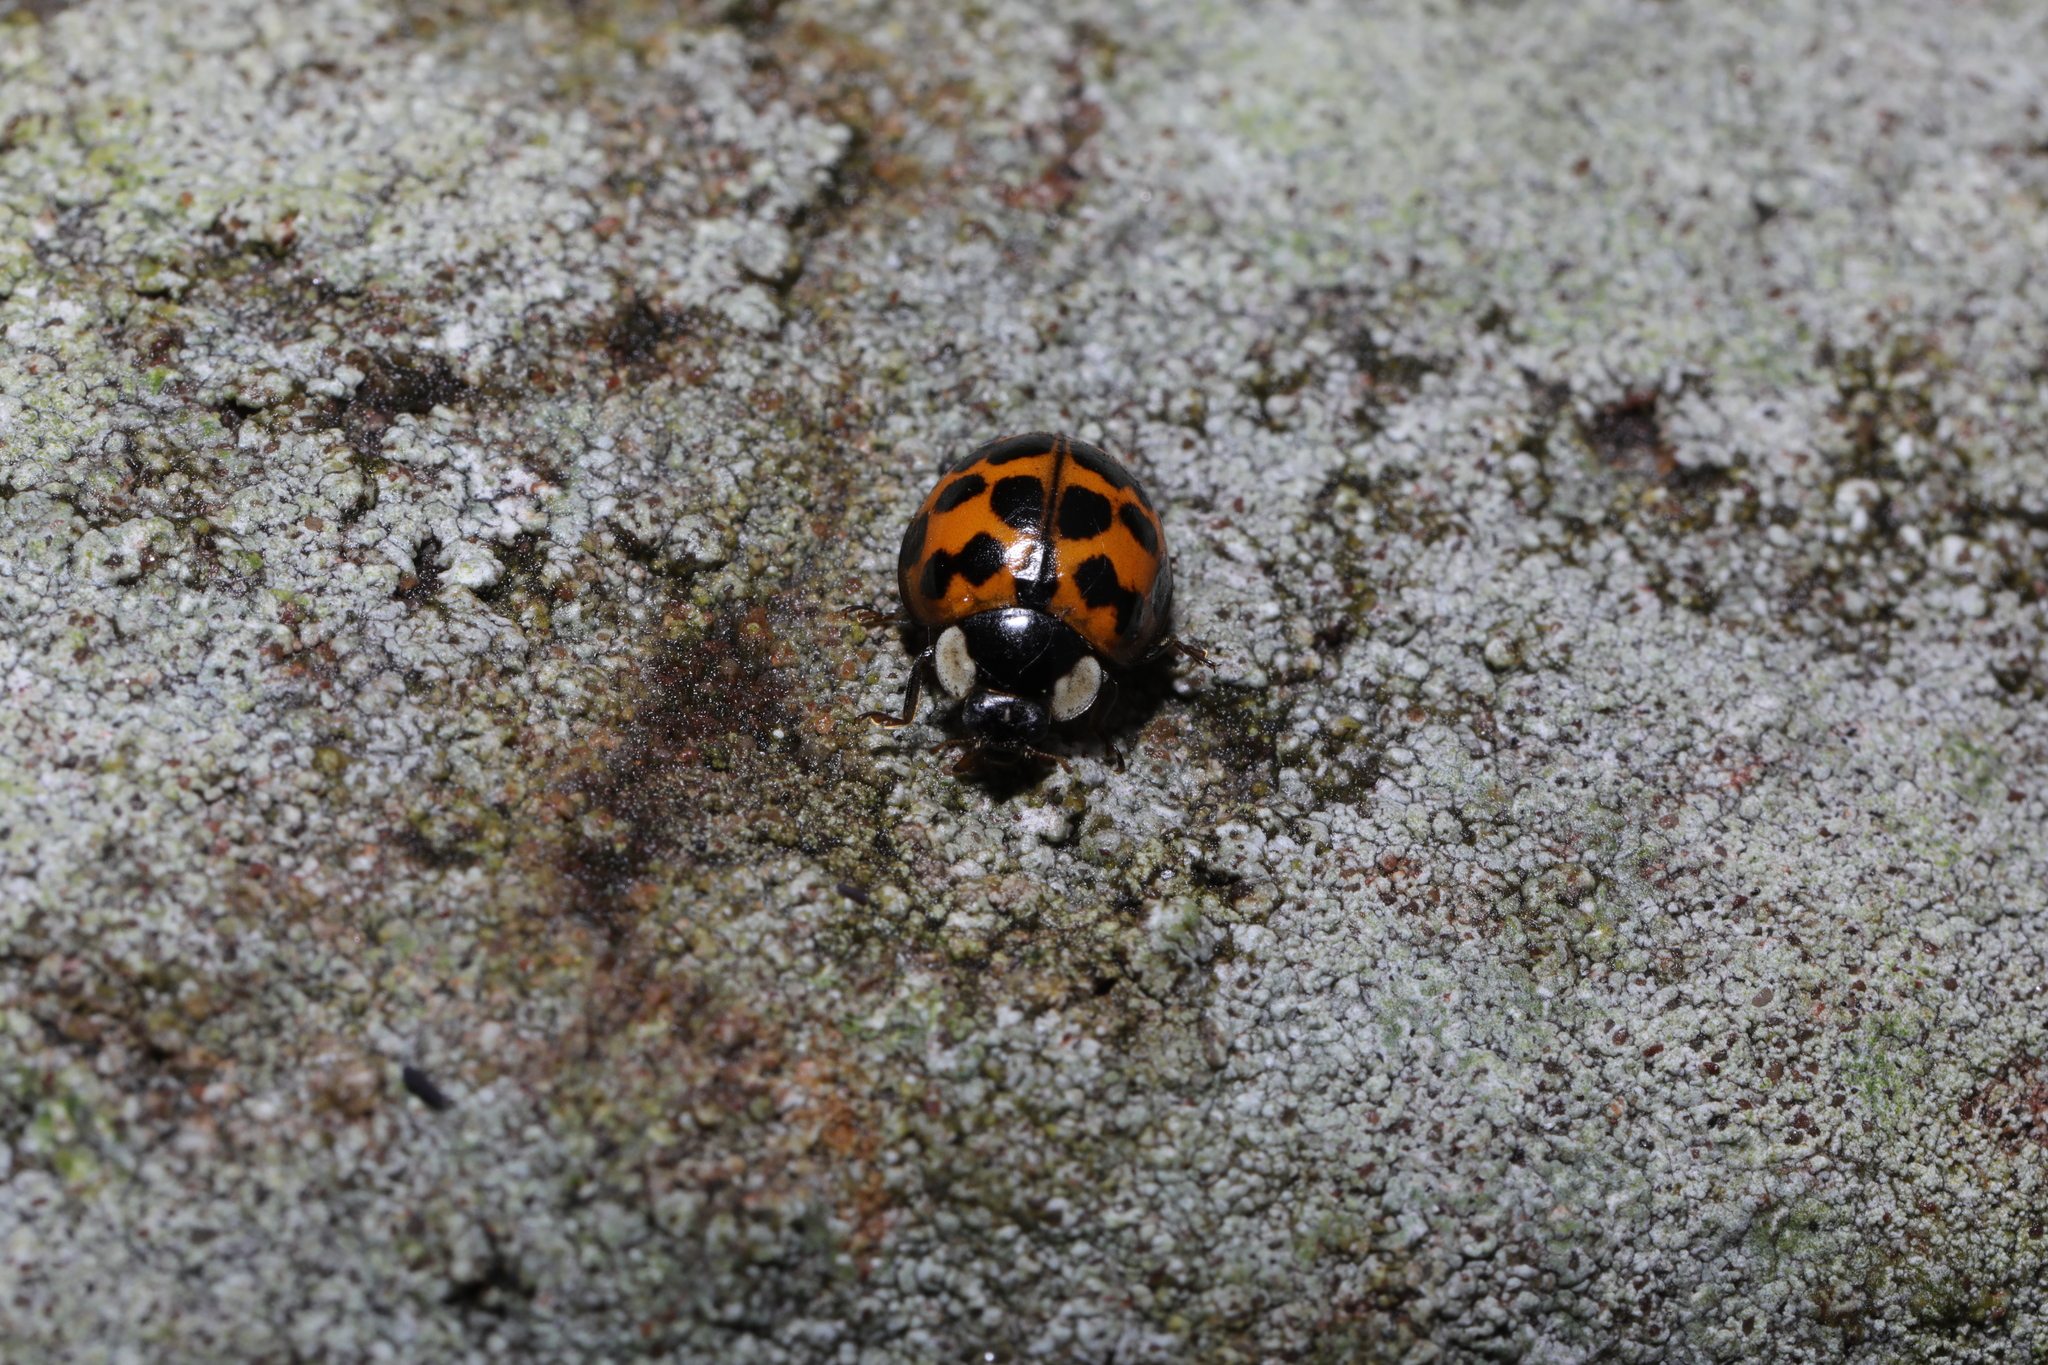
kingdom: Animalia
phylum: Arthropoda
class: Insecta
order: Coleoptera
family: Coccinellidae
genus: Harmonia
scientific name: Harmonia axyridis
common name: Harlequin ladybird
